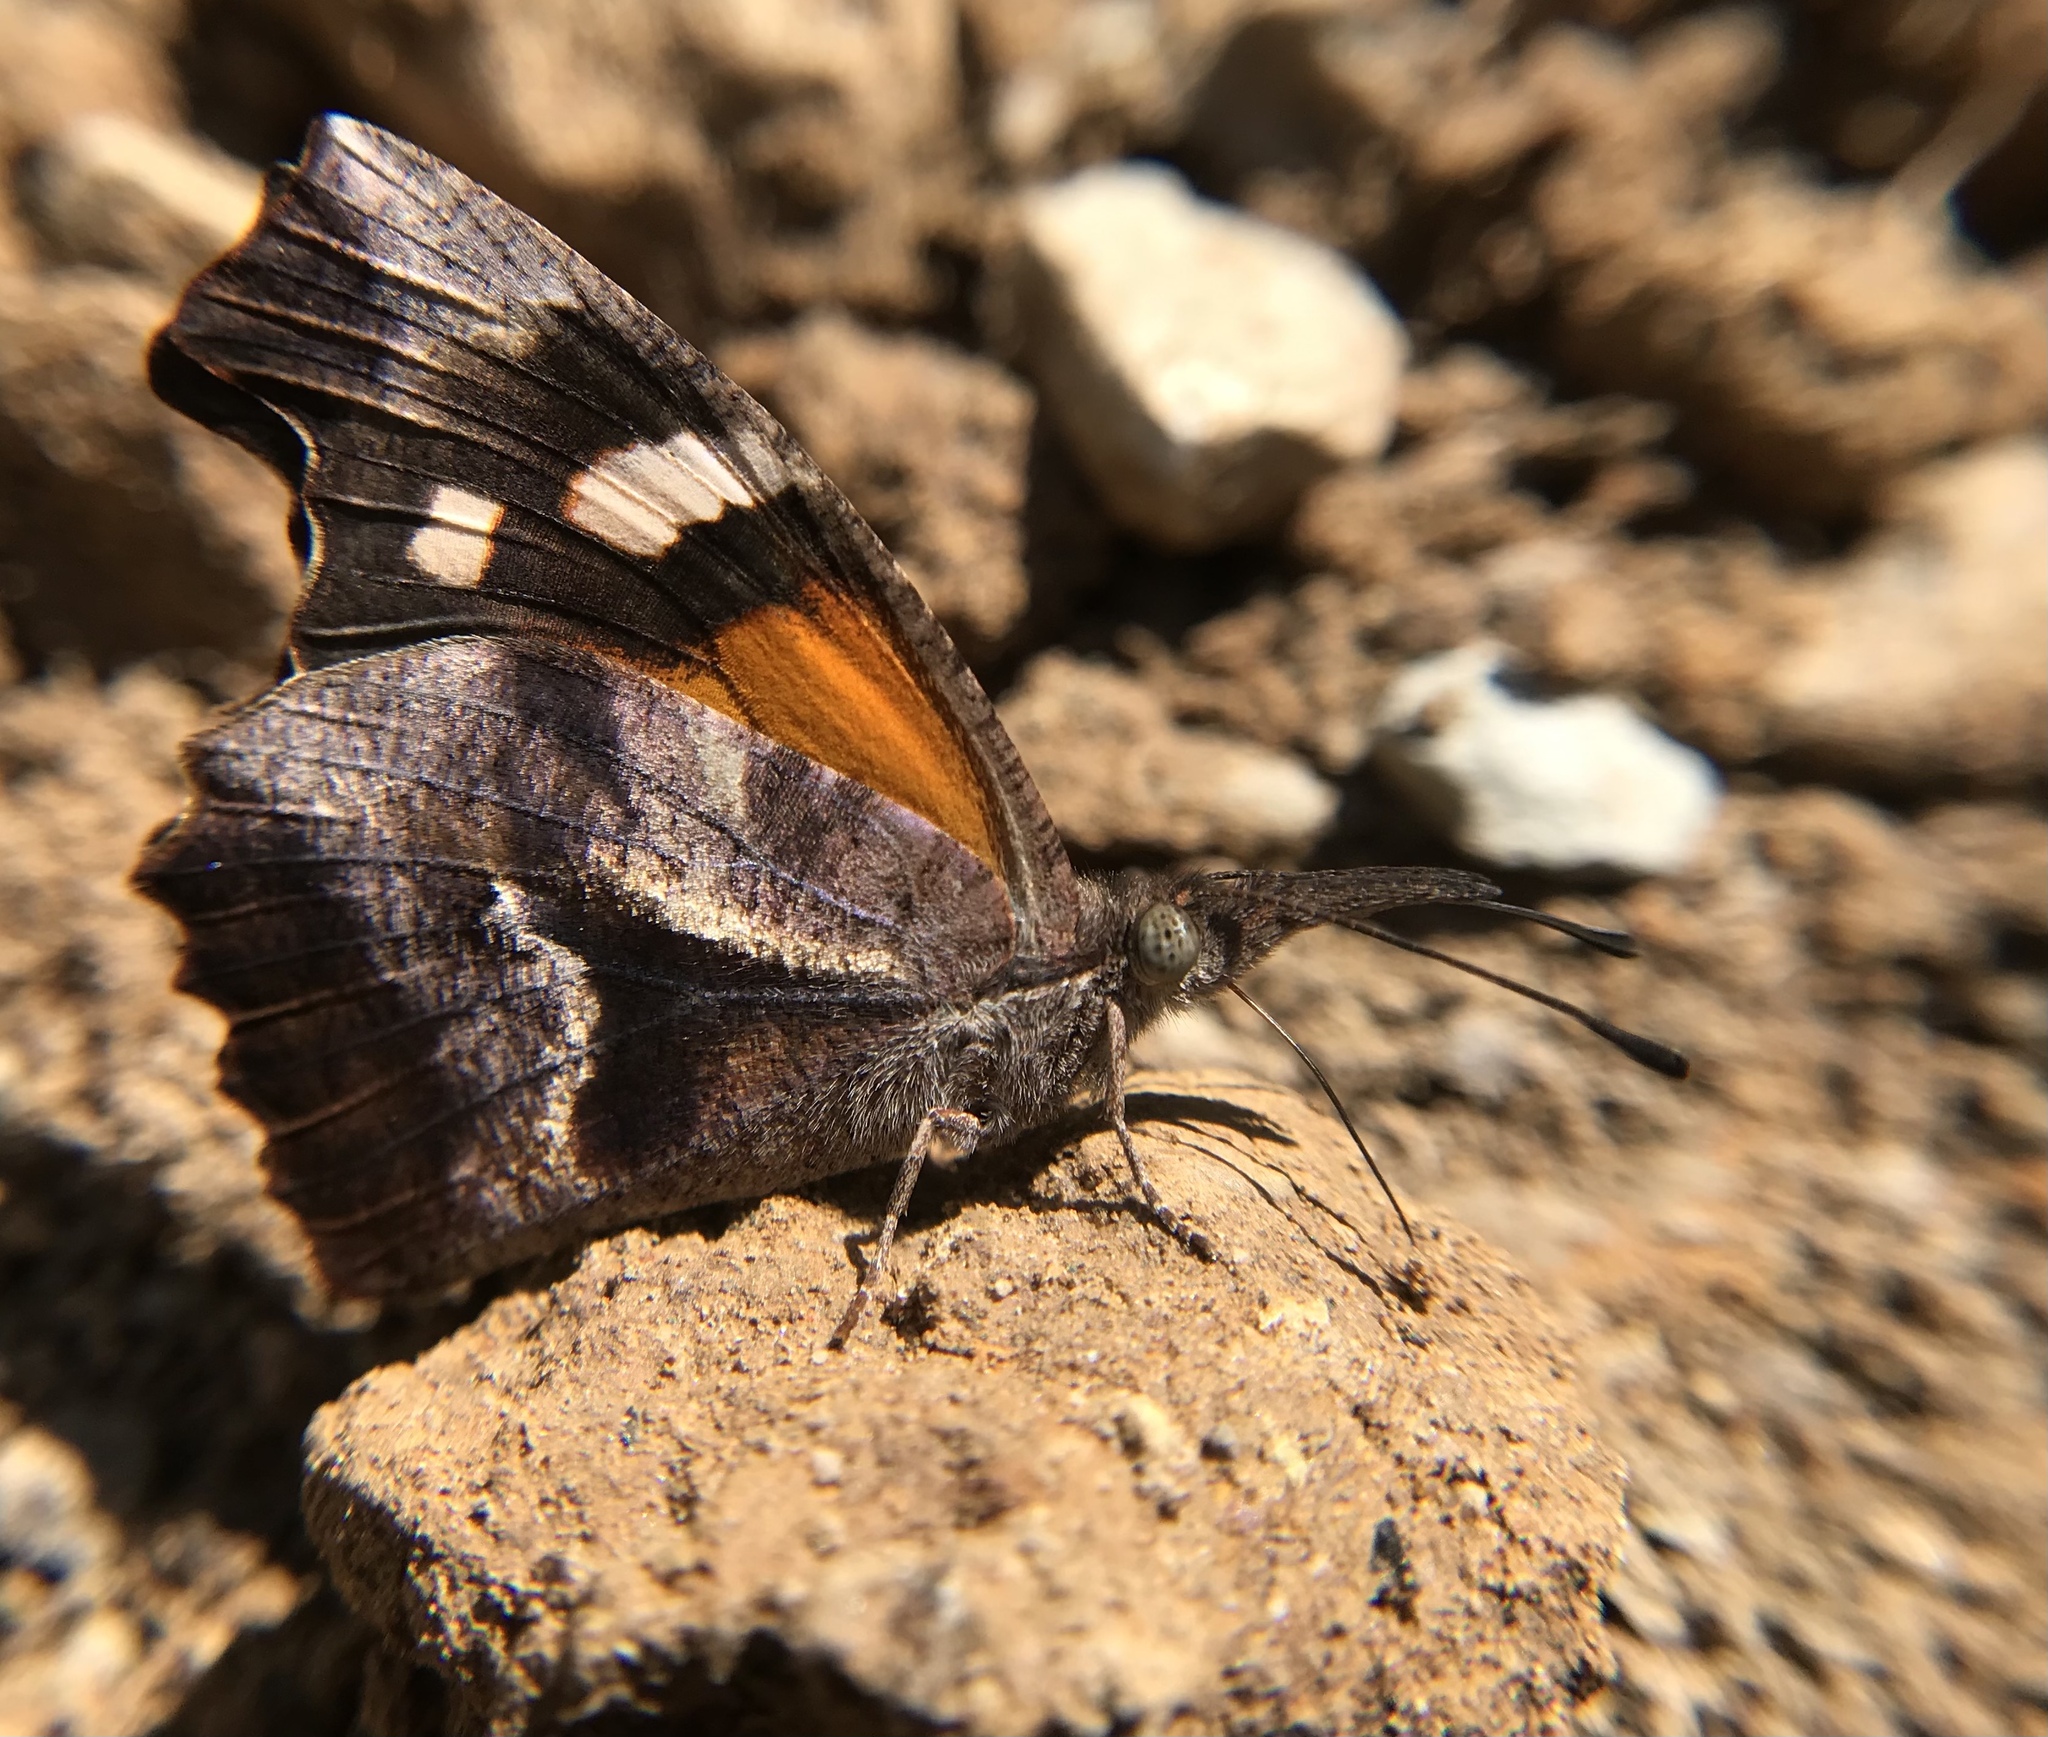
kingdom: Animalia
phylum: Arthropoda
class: Insecta
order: Lepidoptera
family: Nymphalidae
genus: Libytheana
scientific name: Libytheana carinenta
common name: American snout
